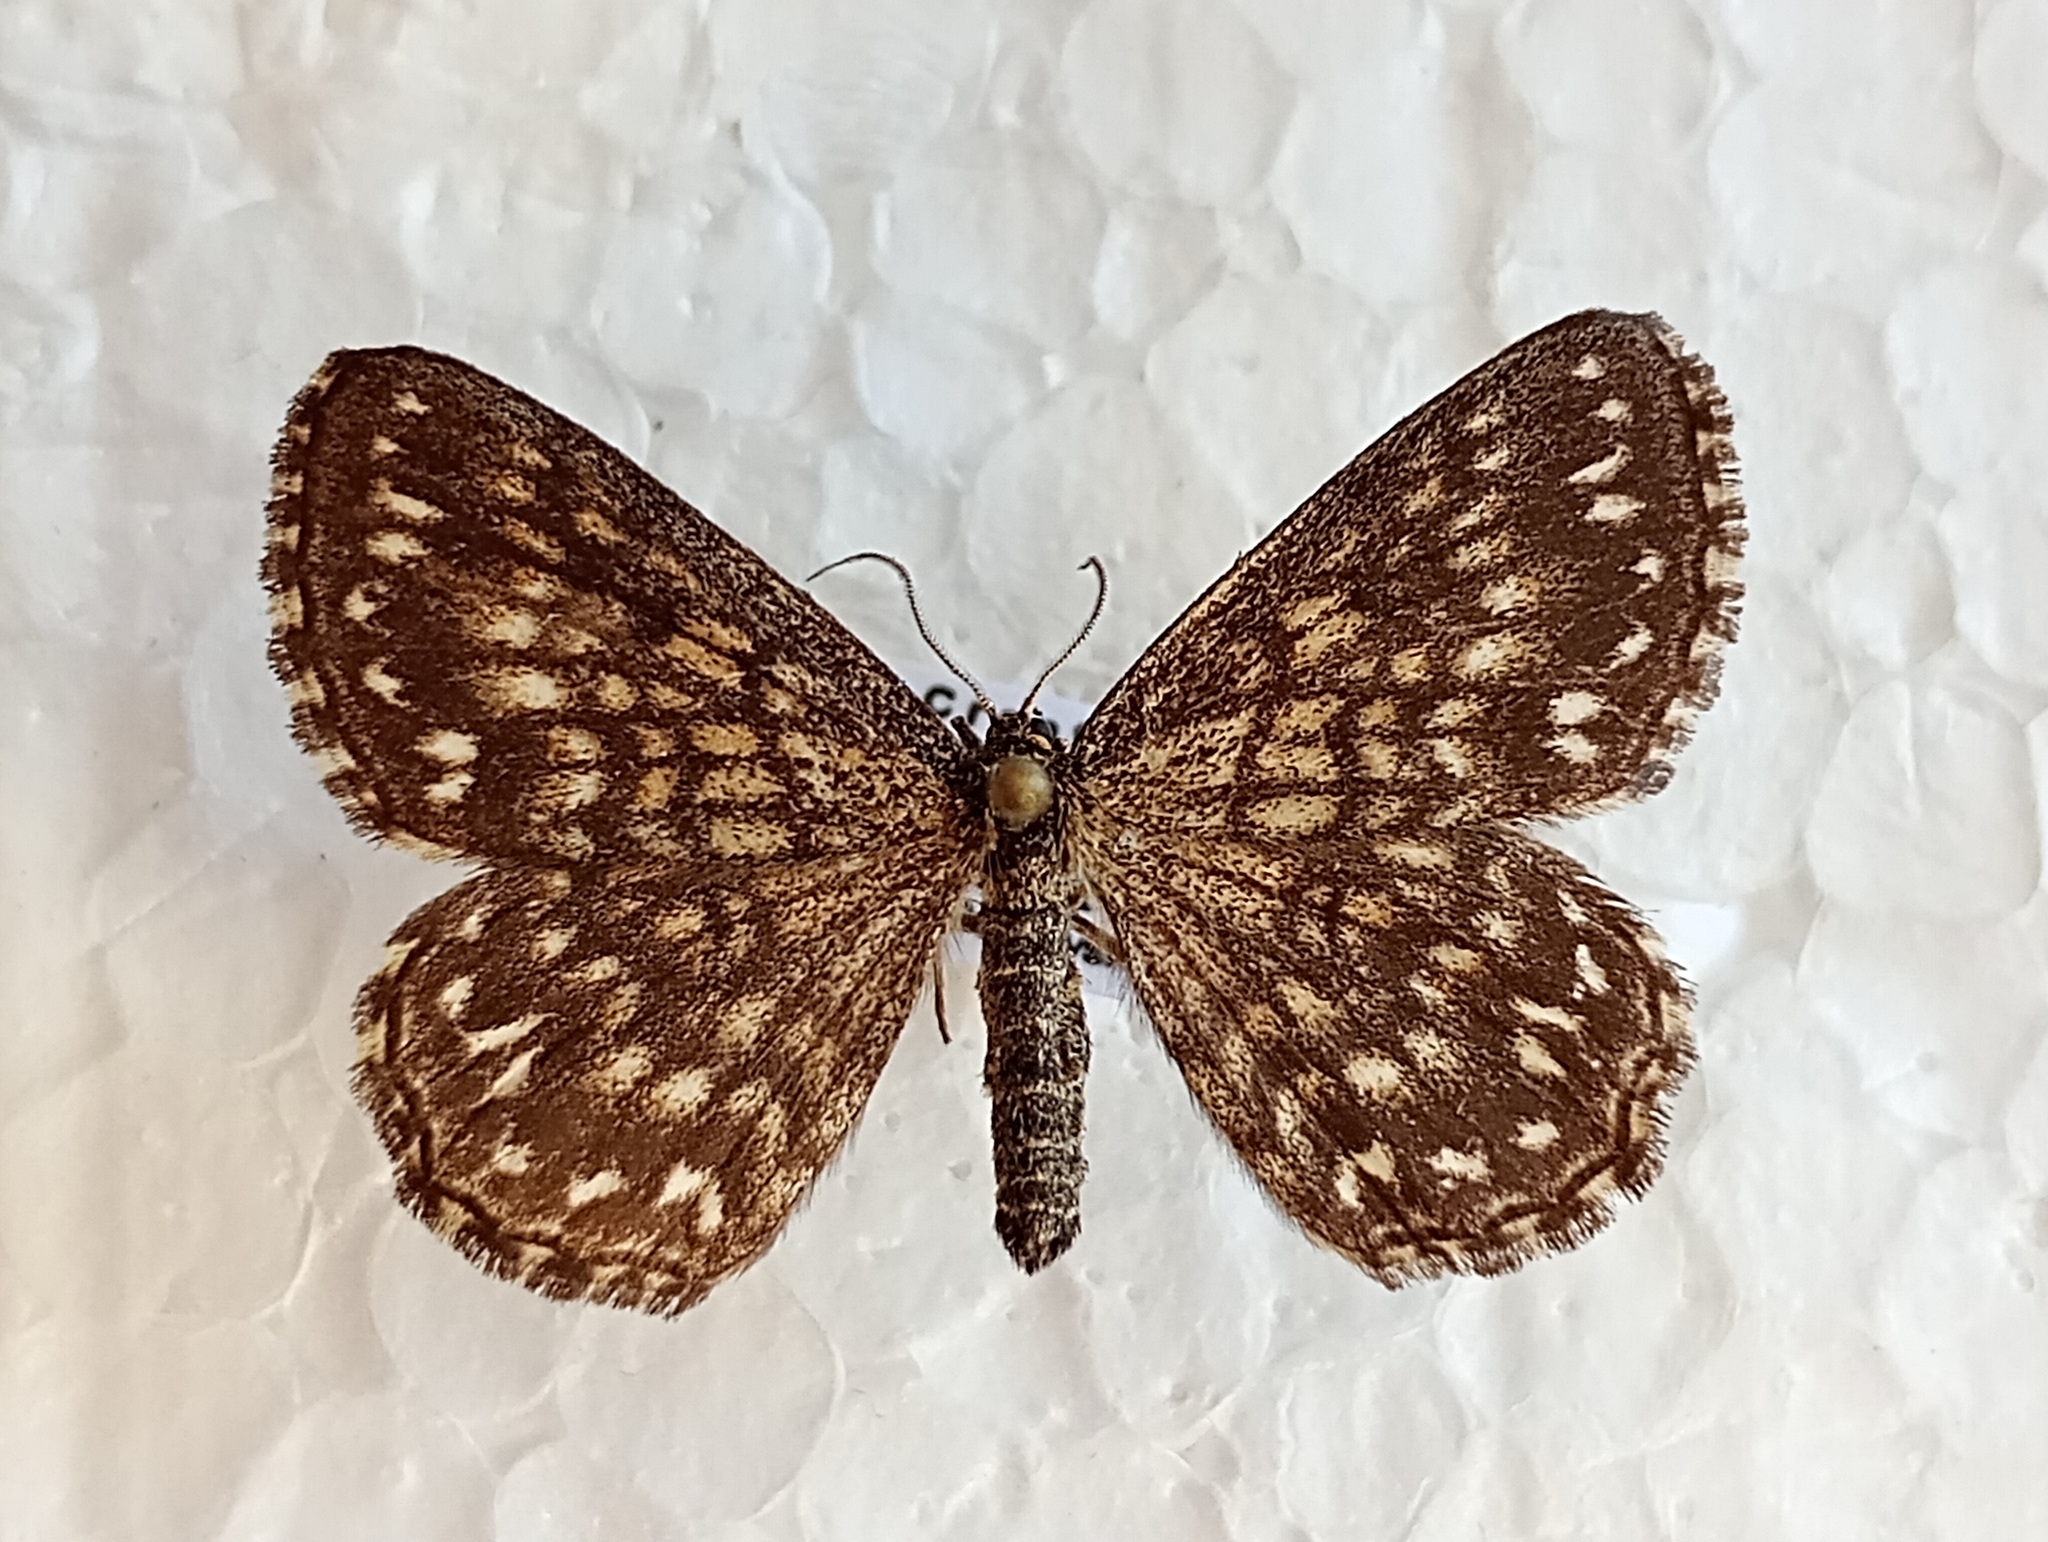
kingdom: Animalia
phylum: Arthropoda
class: Insecta
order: Lepidoptera
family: Geometridae
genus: Scopula
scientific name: Scopula tessellaria
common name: Dusky-brown wave
